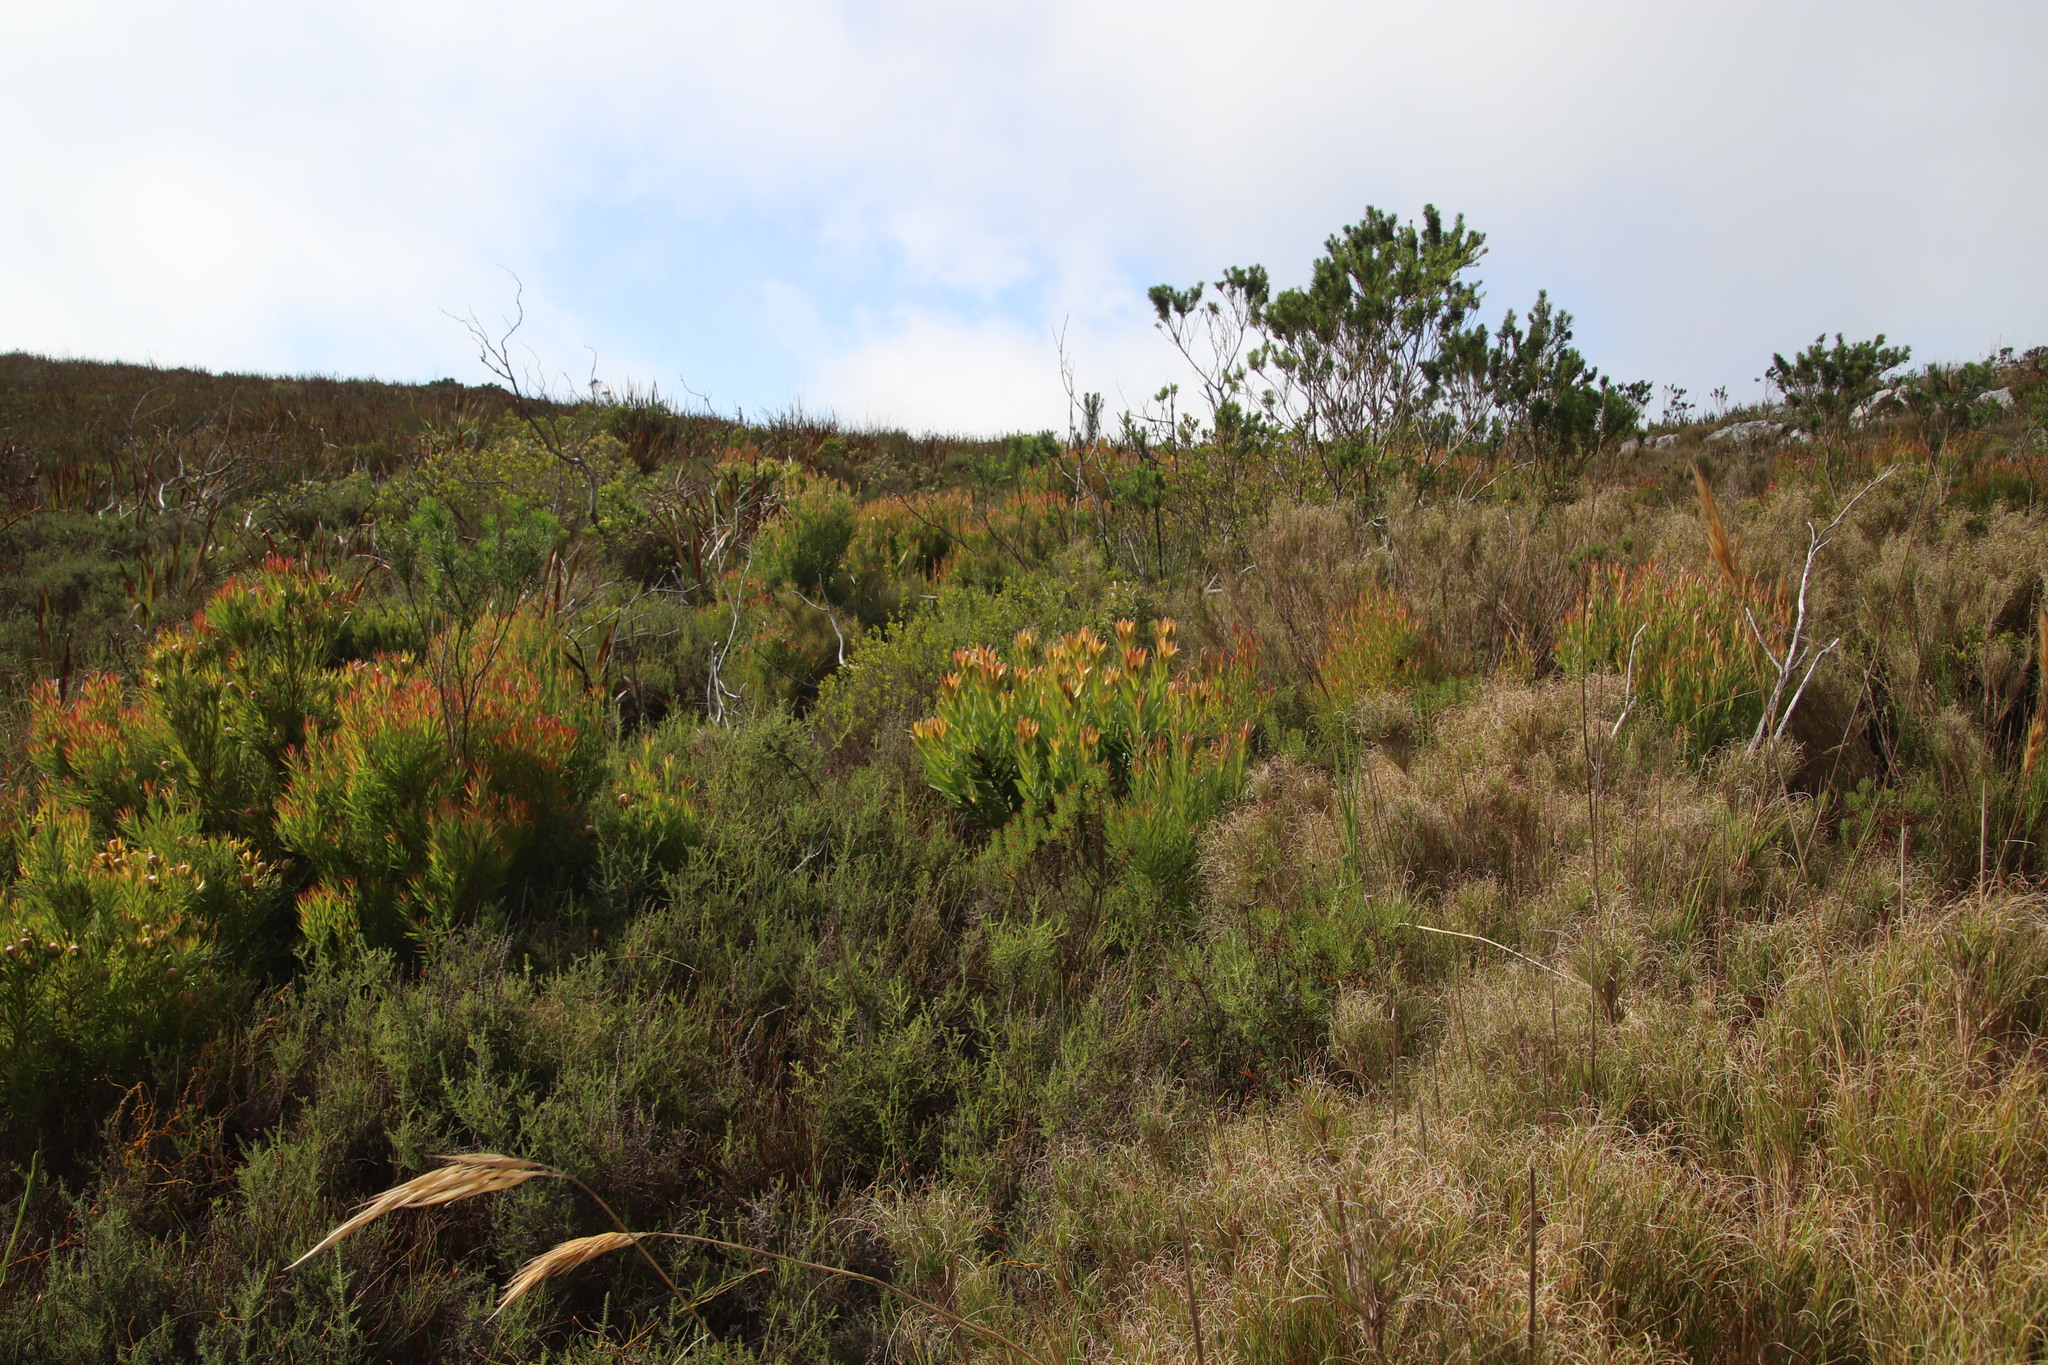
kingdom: Plantae
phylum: Tracheophyta
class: Magnoliopsida
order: Proteales
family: Proteaceae
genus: Leucadendron
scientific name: Leucadendron laureolum
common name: Golden sunshinebush
